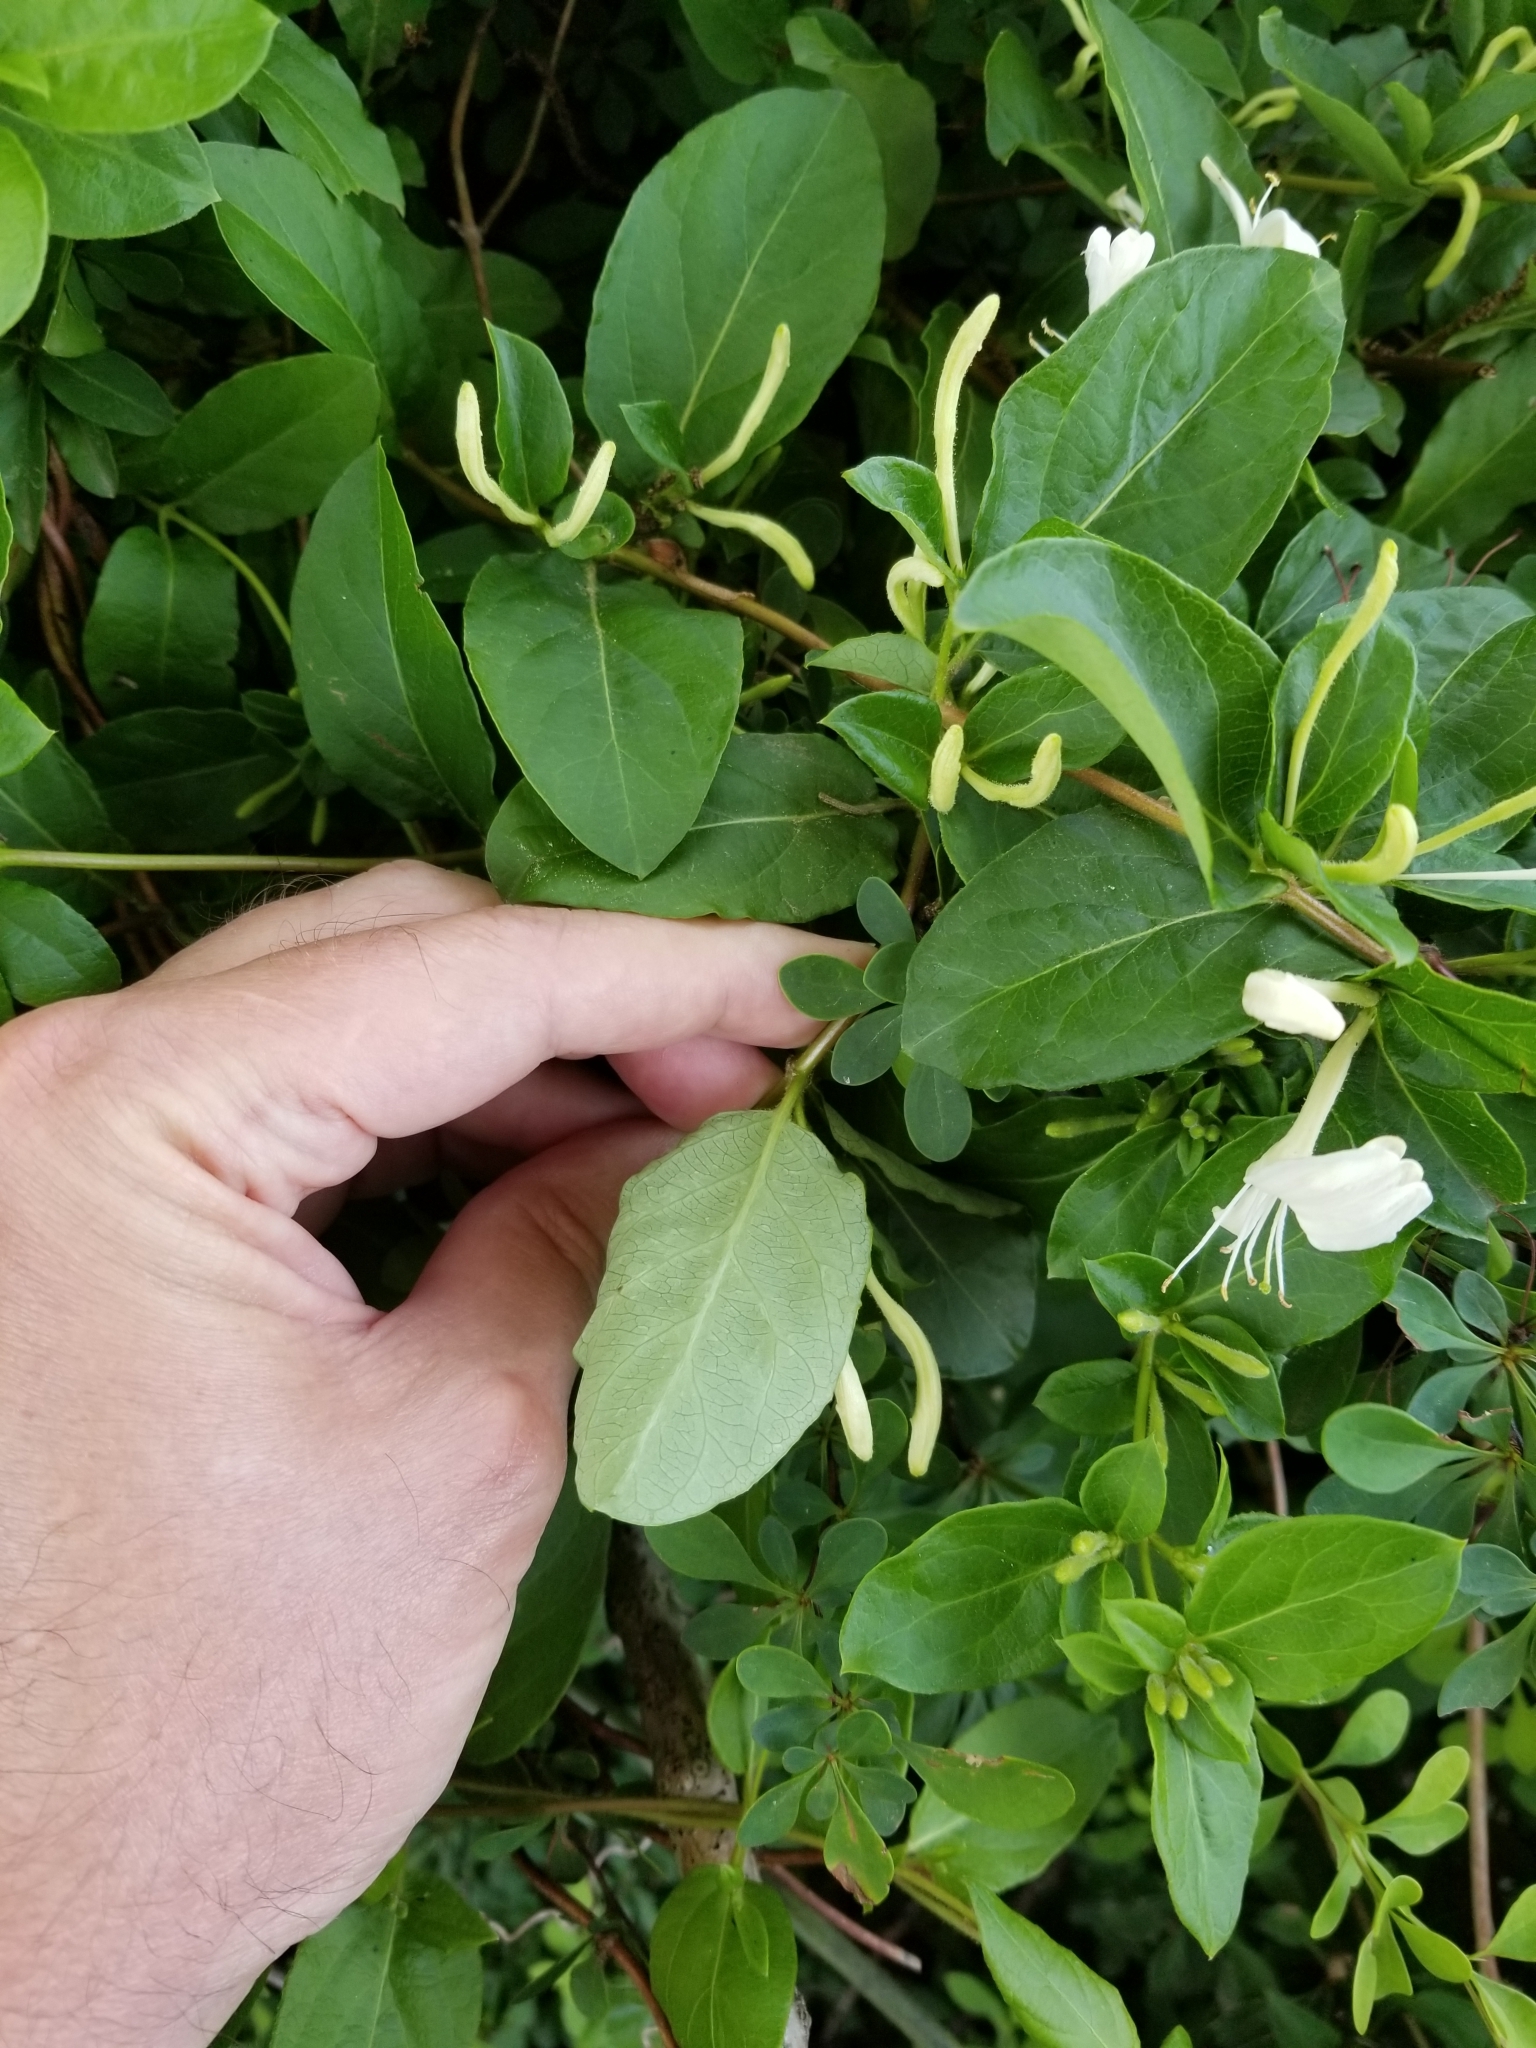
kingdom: Plantae
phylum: Tracheophyta
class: Magnoliopsida
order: Dipsacales
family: Caprifoliaceae
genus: Lonicera
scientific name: Lonicera japonica
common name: Japanese honeysuckle
